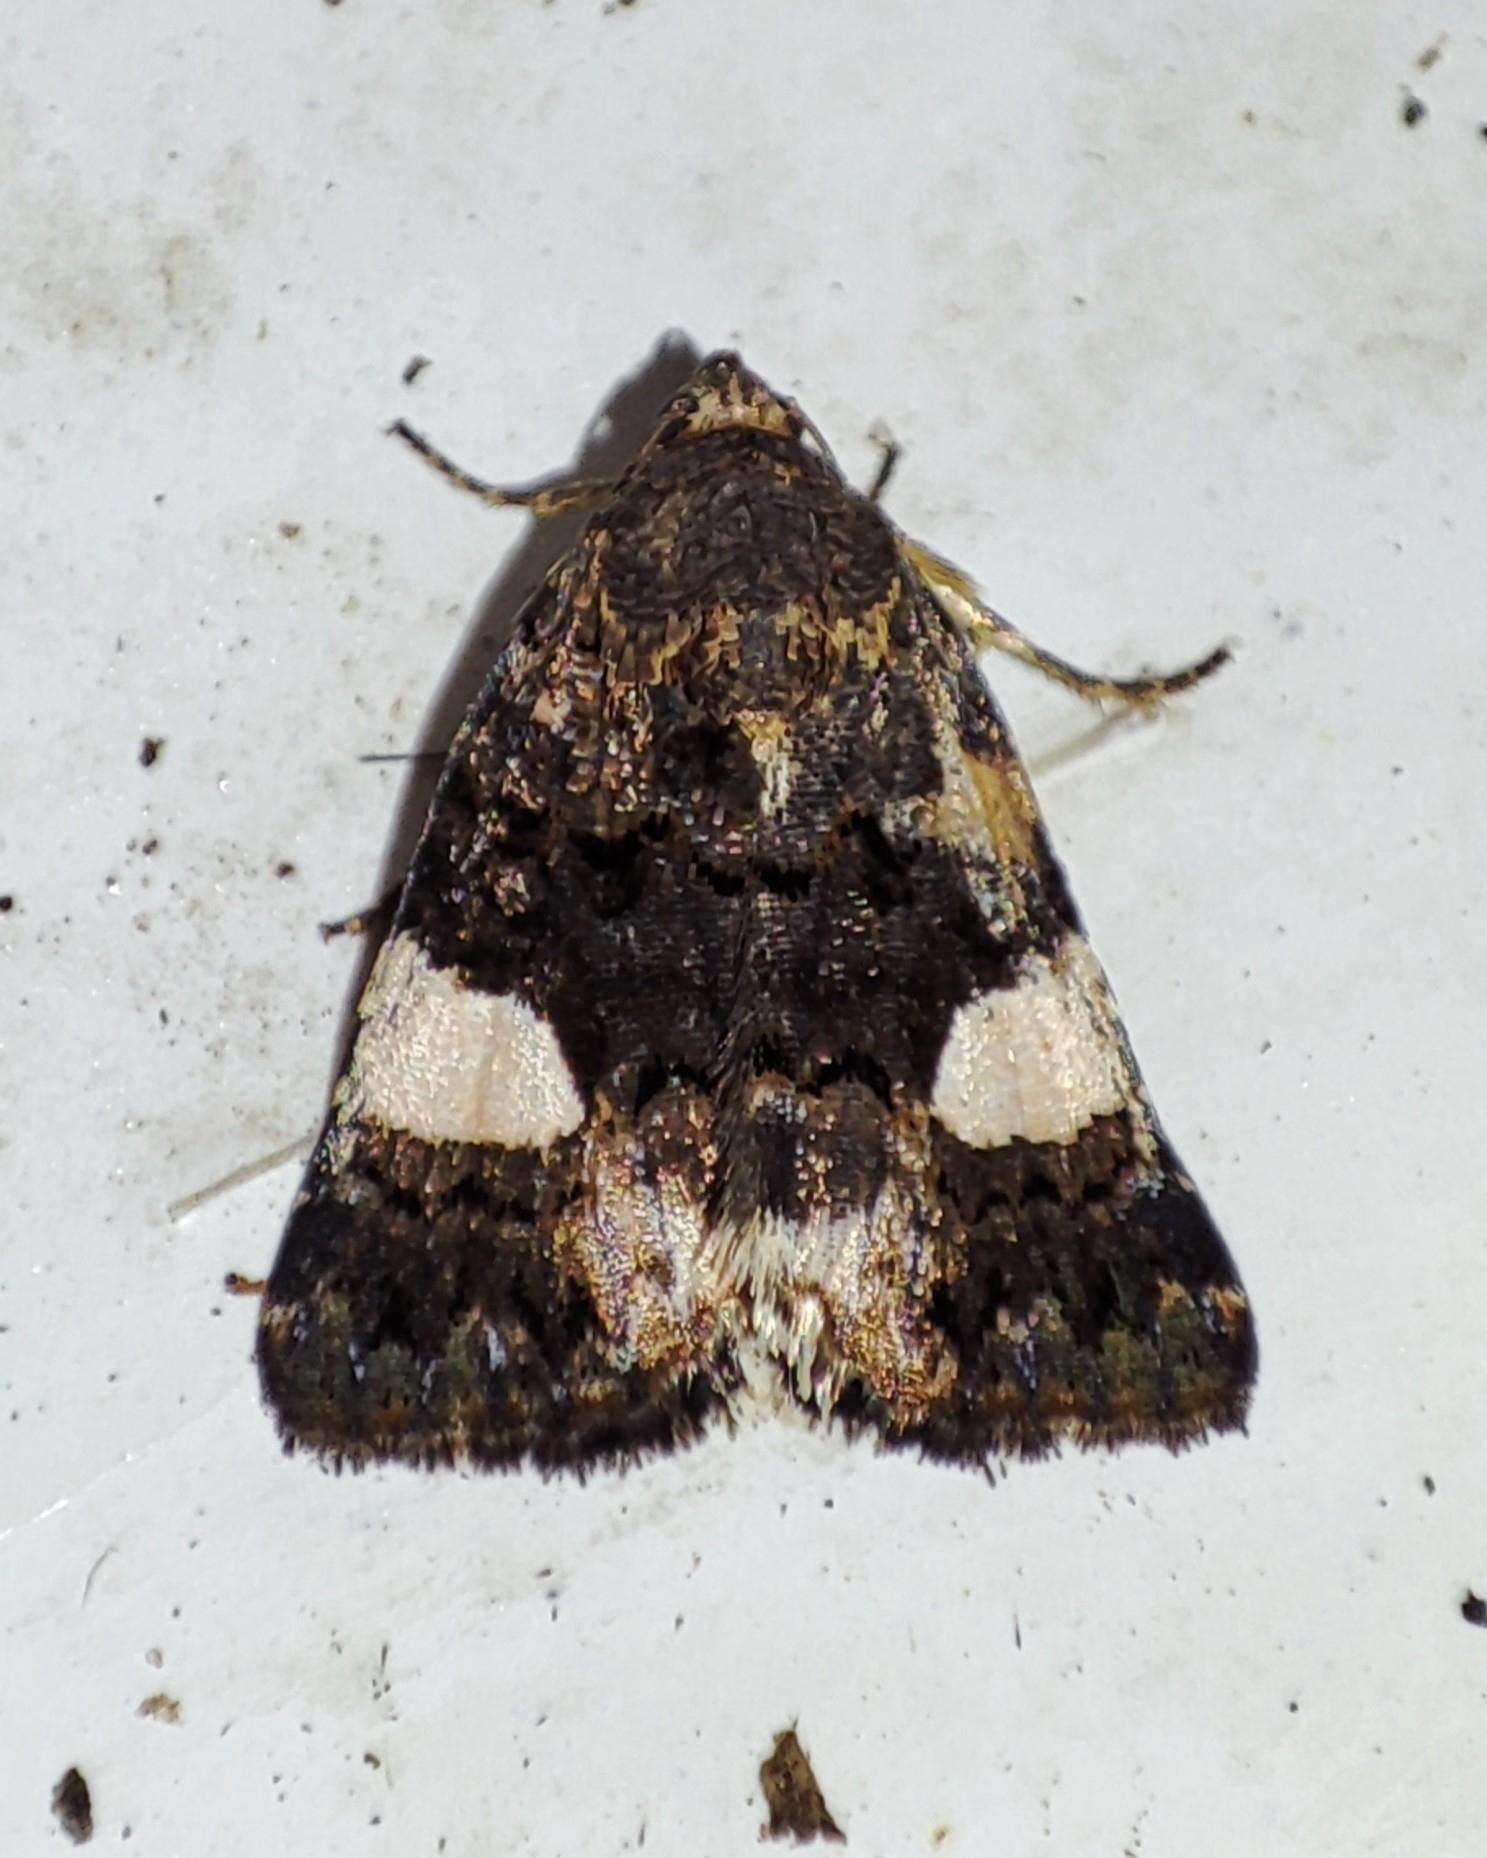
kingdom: Animalia
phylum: Arthropoda
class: Insecta
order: Lepidoptera
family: Erebidae
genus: Tyta
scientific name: Tyta luctuosa
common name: Four-spotted
